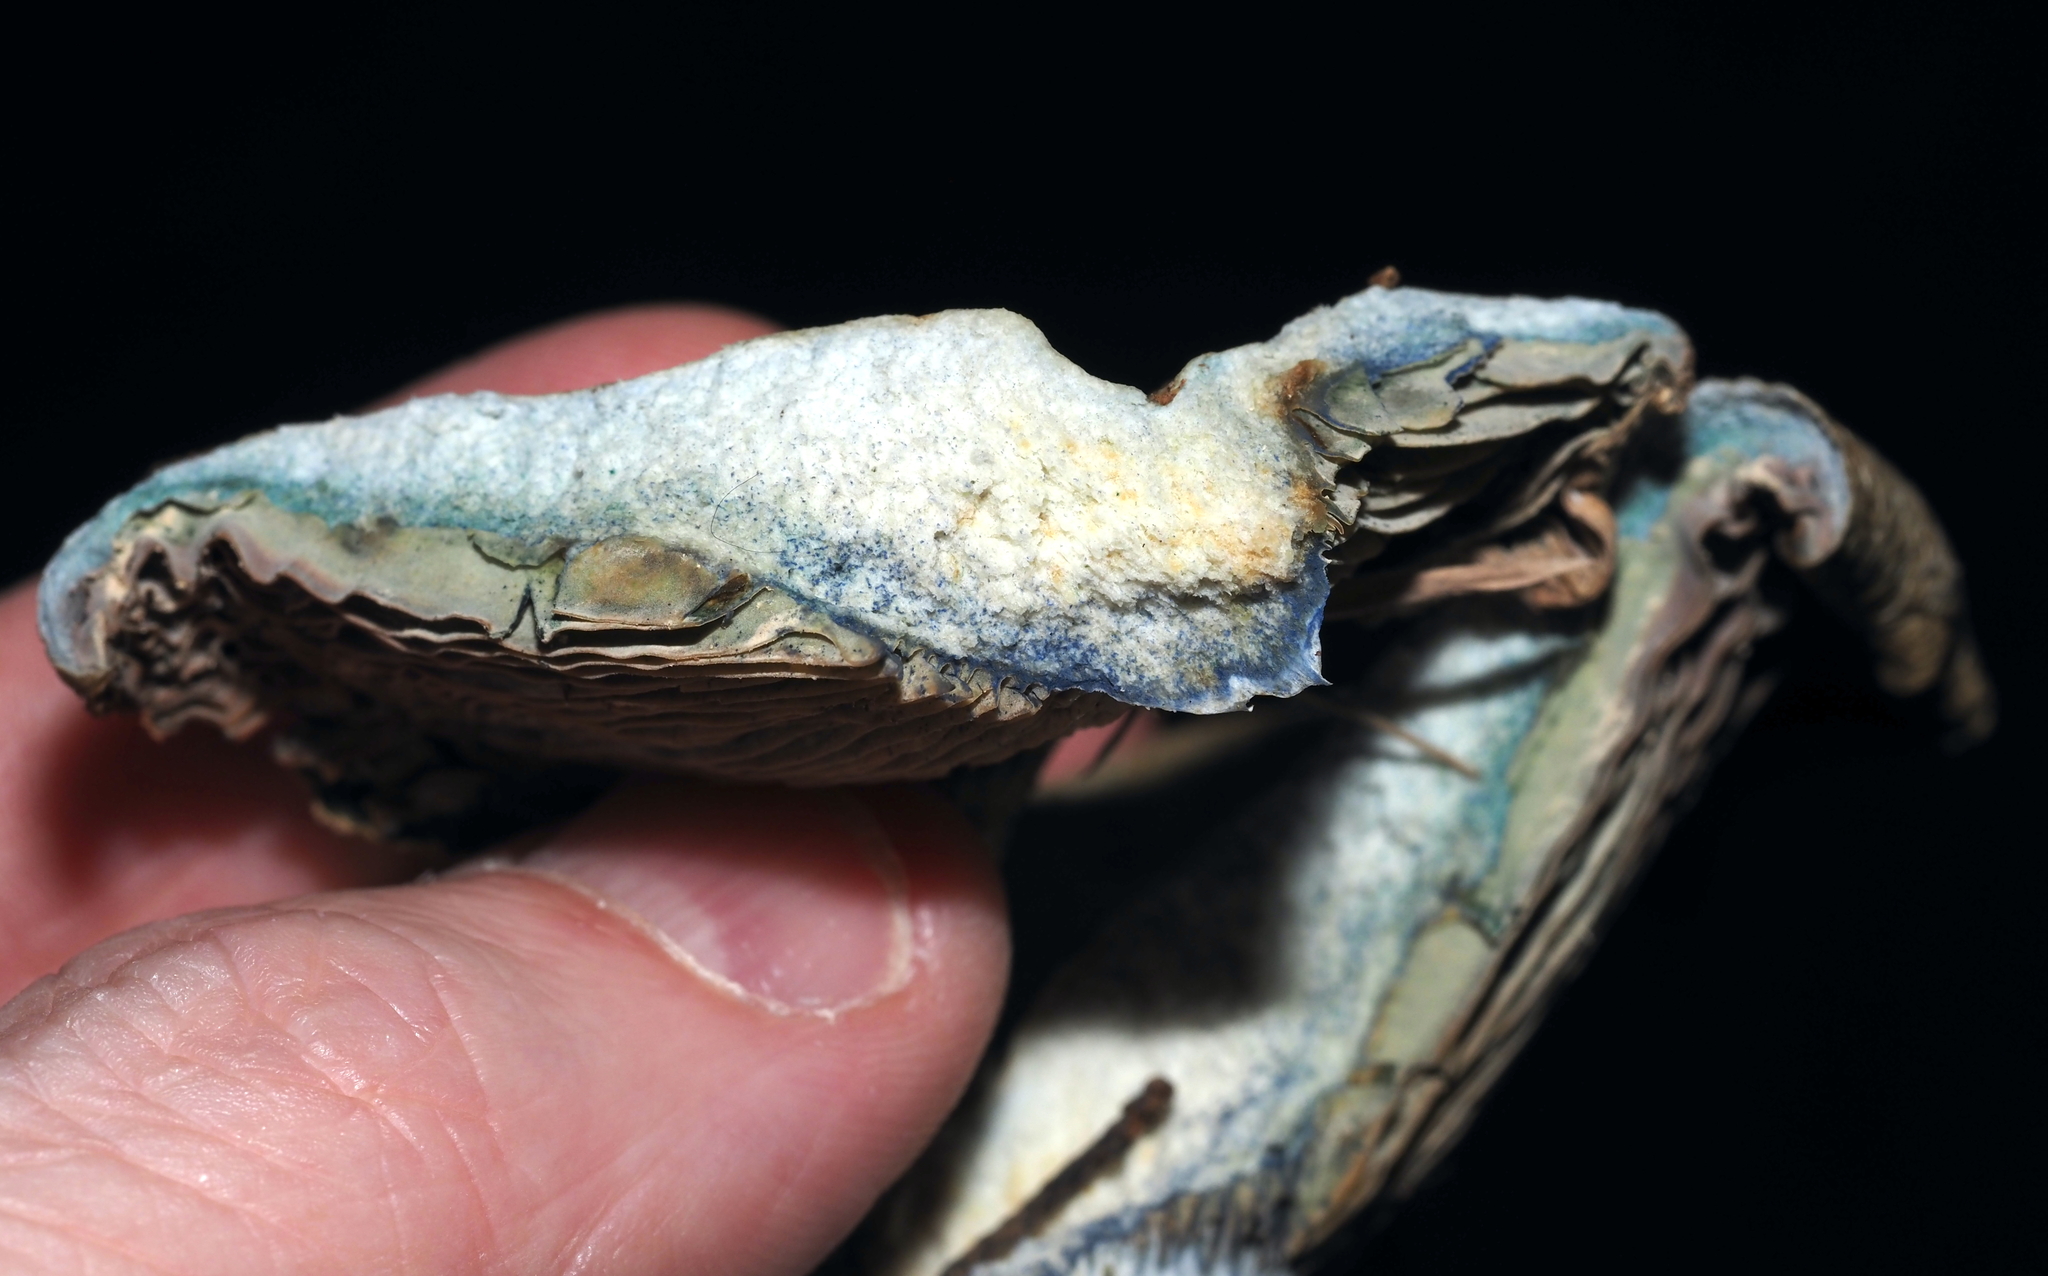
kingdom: Fungi
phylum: Basidiomycota
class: Agaricomycetes
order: Russulales
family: Russulaceae
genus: Lactarius
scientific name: Lactarius indigo
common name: Indigo milk cap
